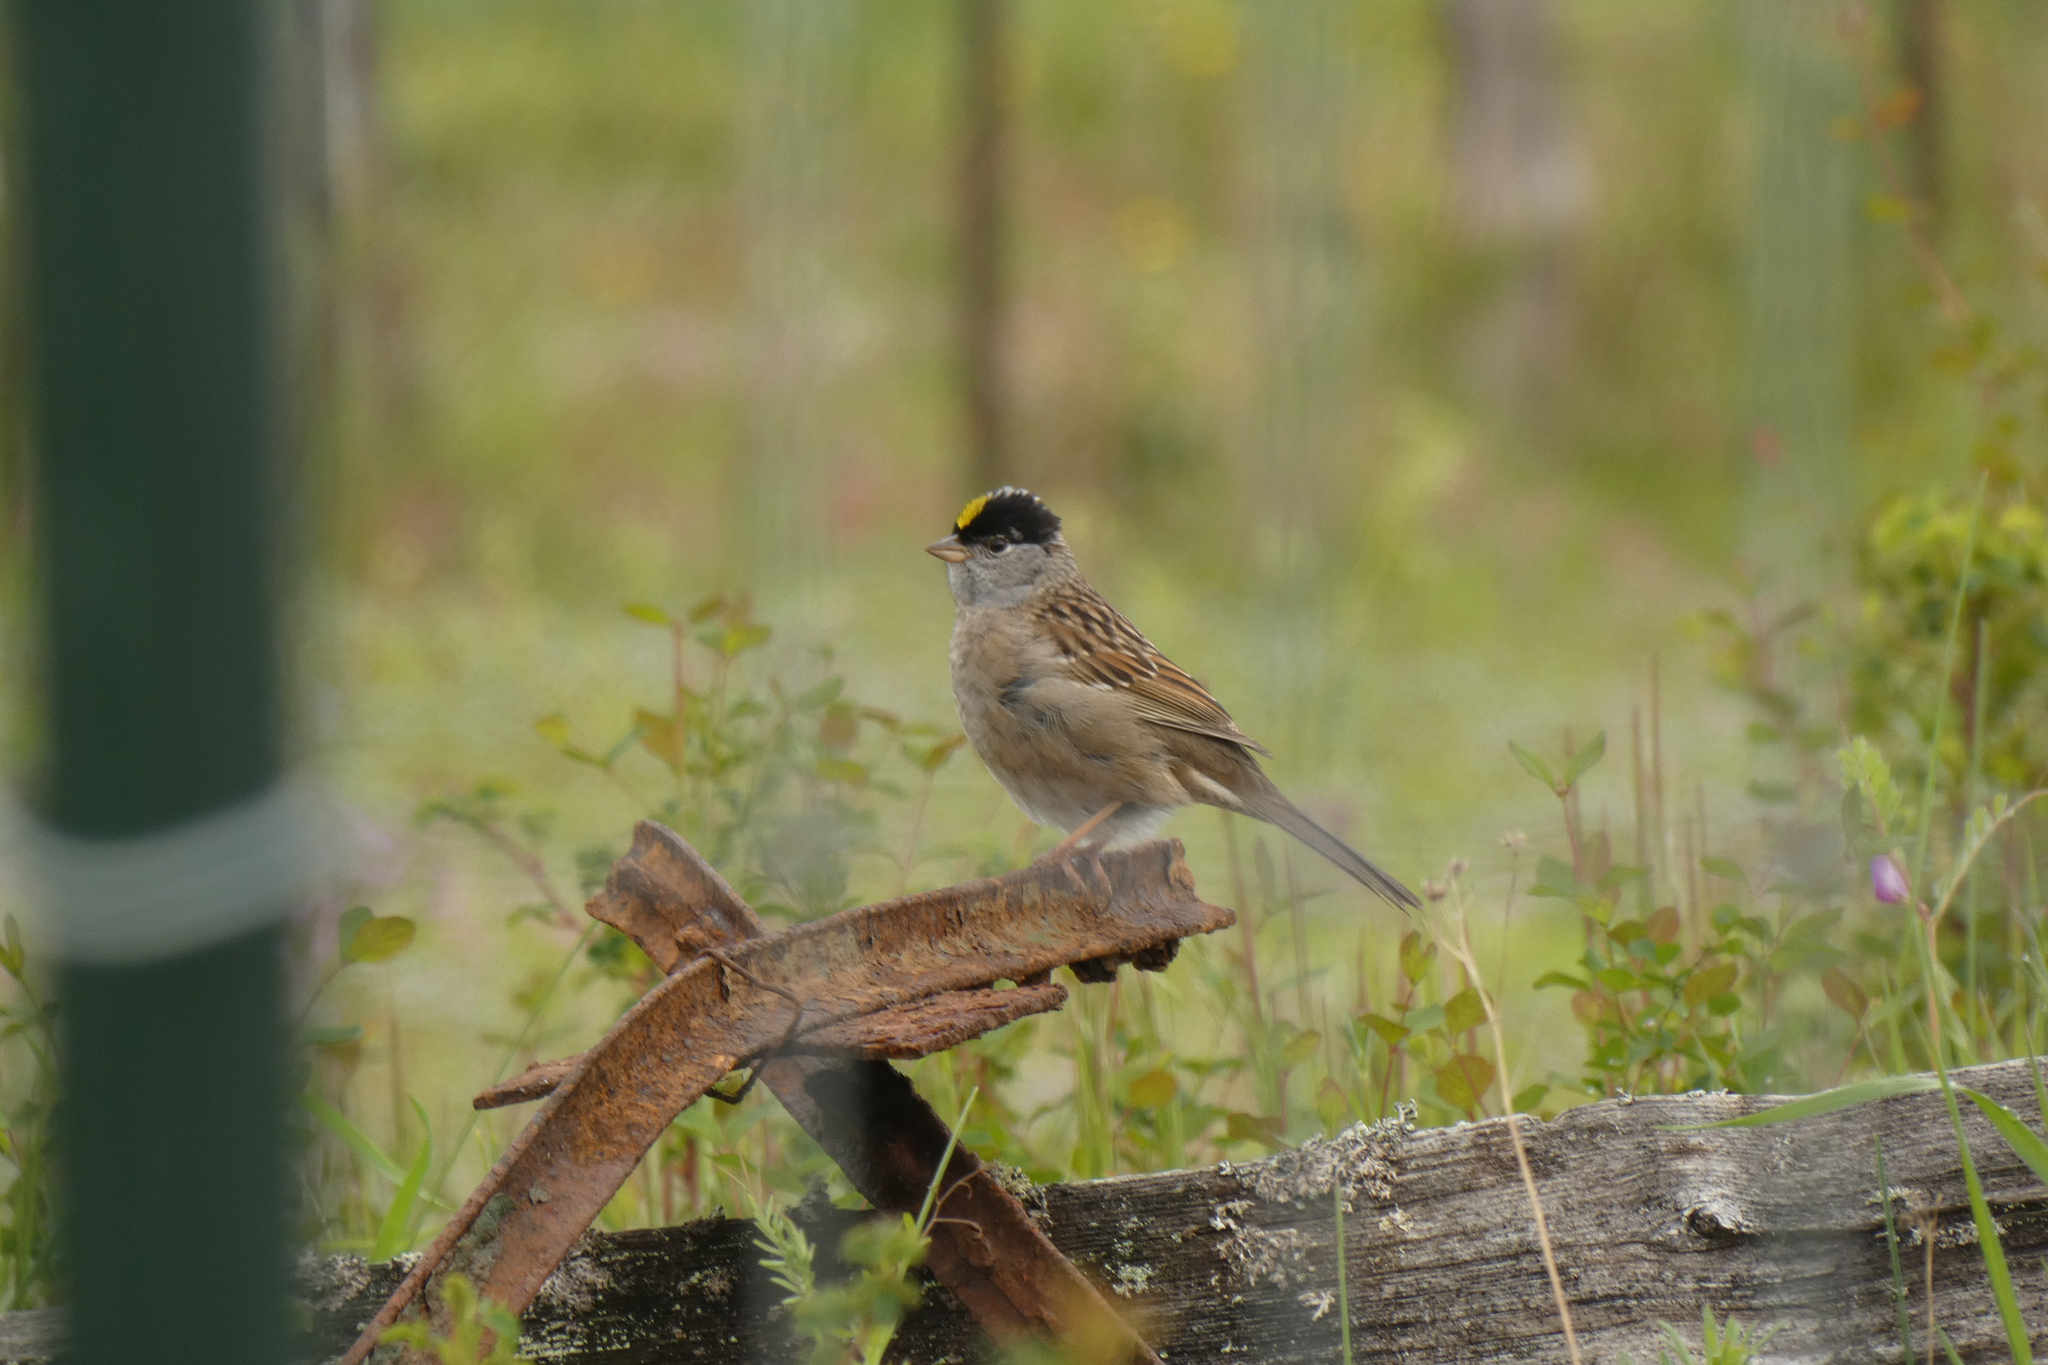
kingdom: Animalia
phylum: Chordata
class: Aves
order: Passeriformes
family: Passerellidae
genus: Zonotrichia
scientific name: Zonotrichia atricapilla
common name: Golden-crowned sparrow
